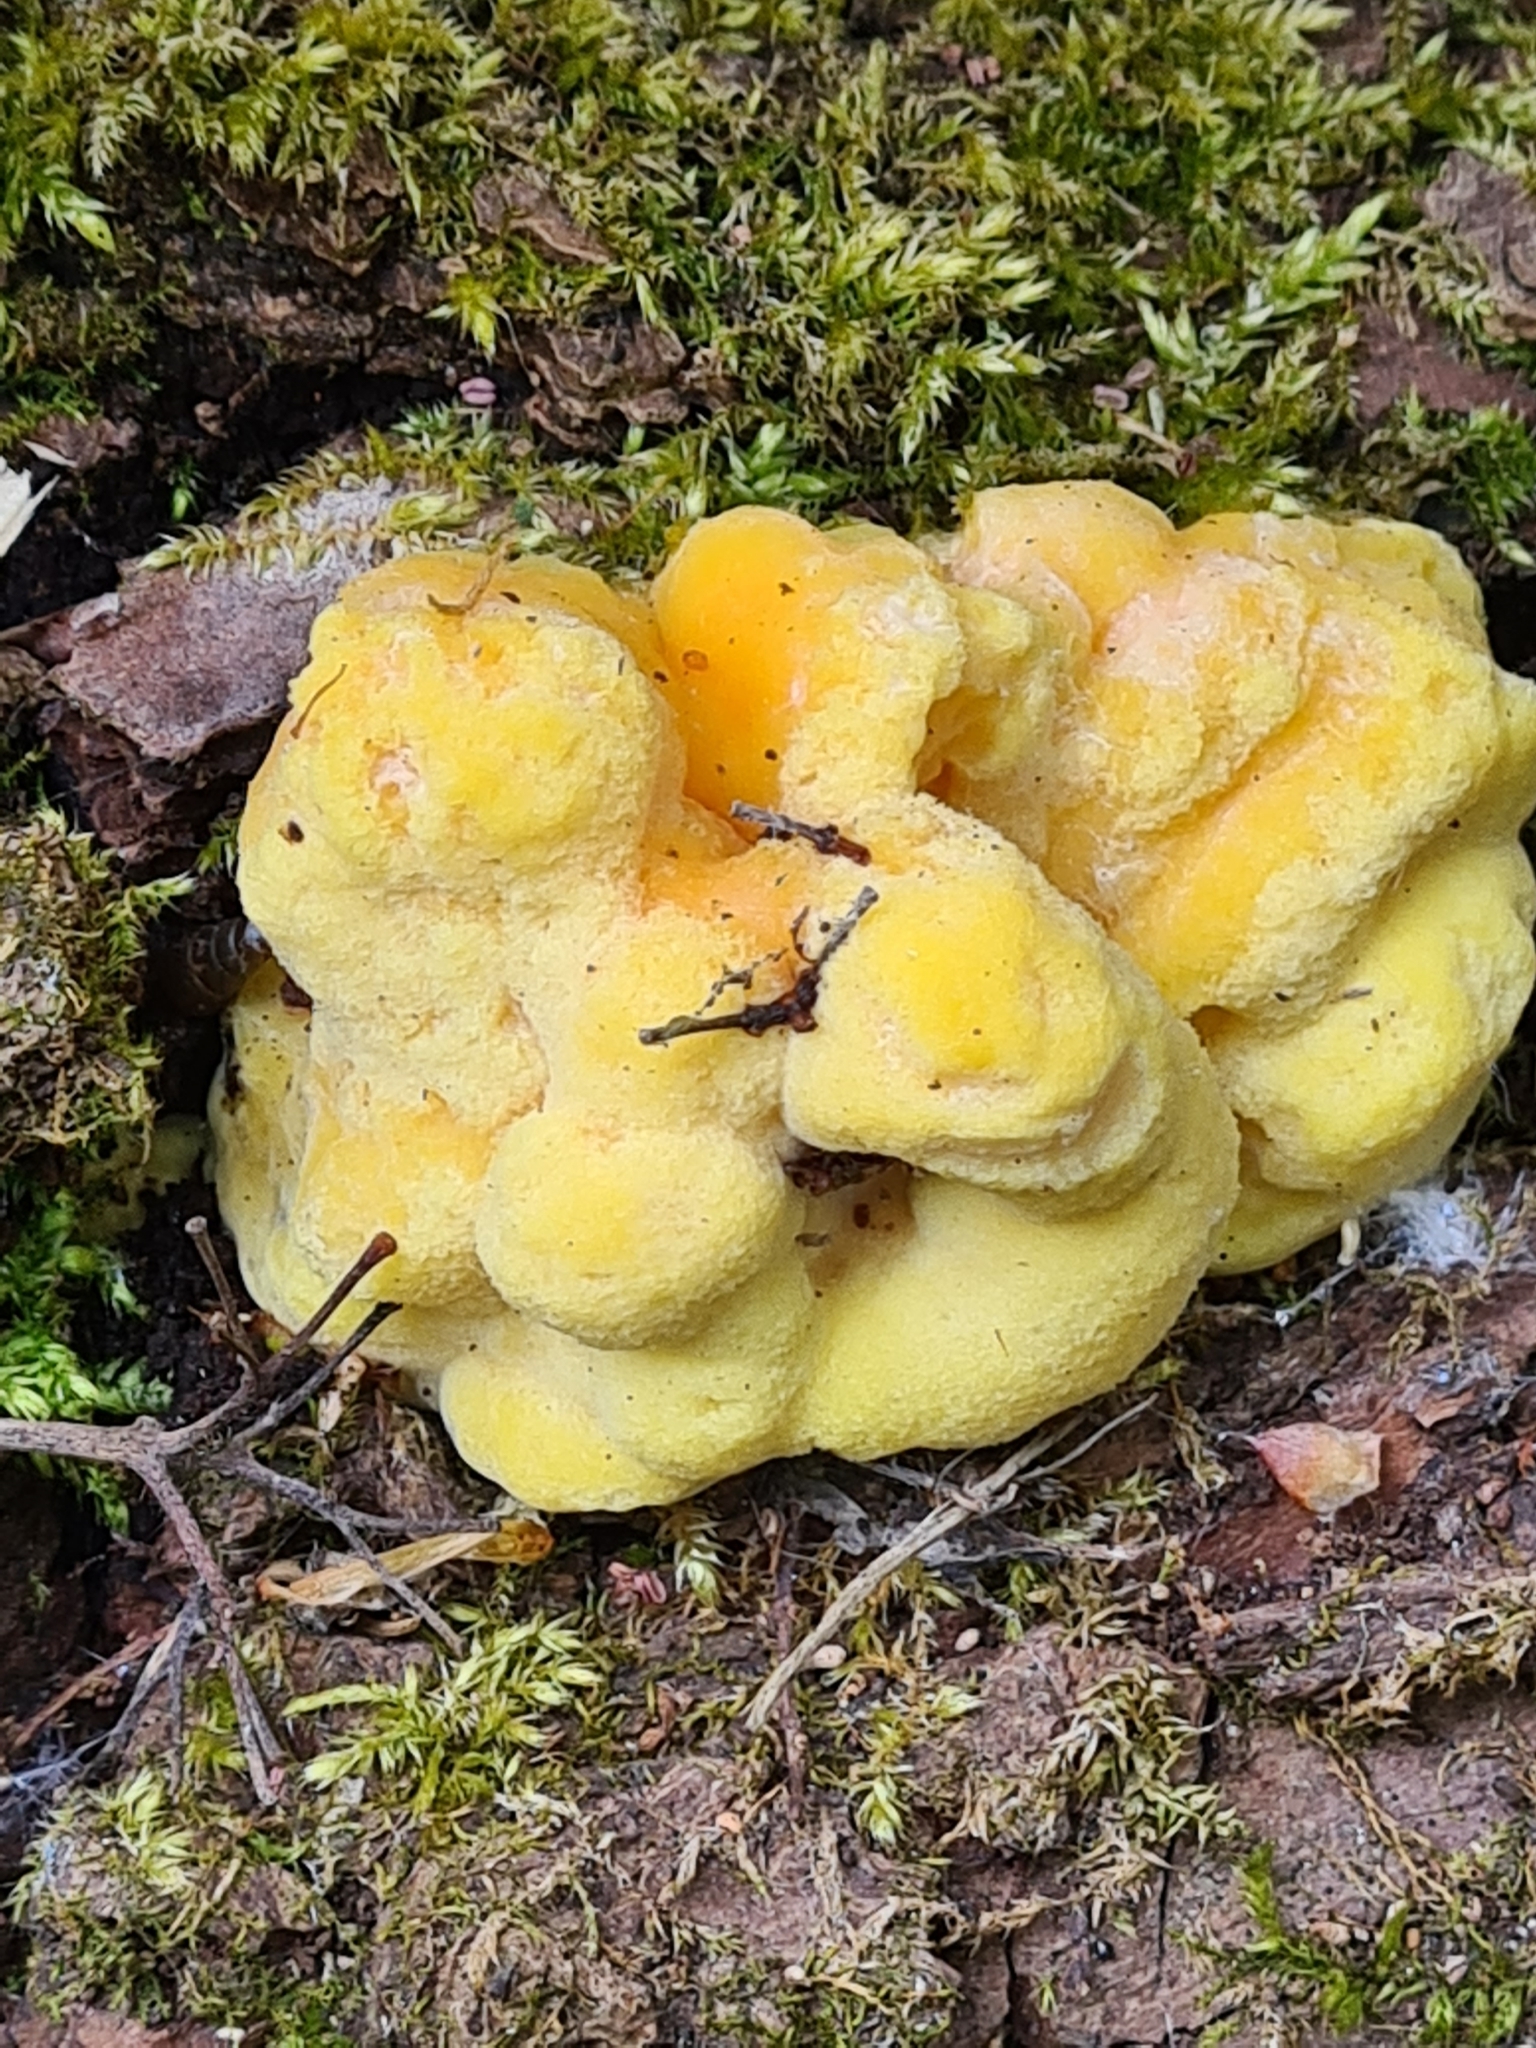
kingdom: Fungi
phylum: Basidiomycota
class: Agaricomycetes
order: Polyporales
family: Laetiporaceae
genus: Laetiporus
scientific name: Laetiporus sulphureus
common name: Chicken of the woods
